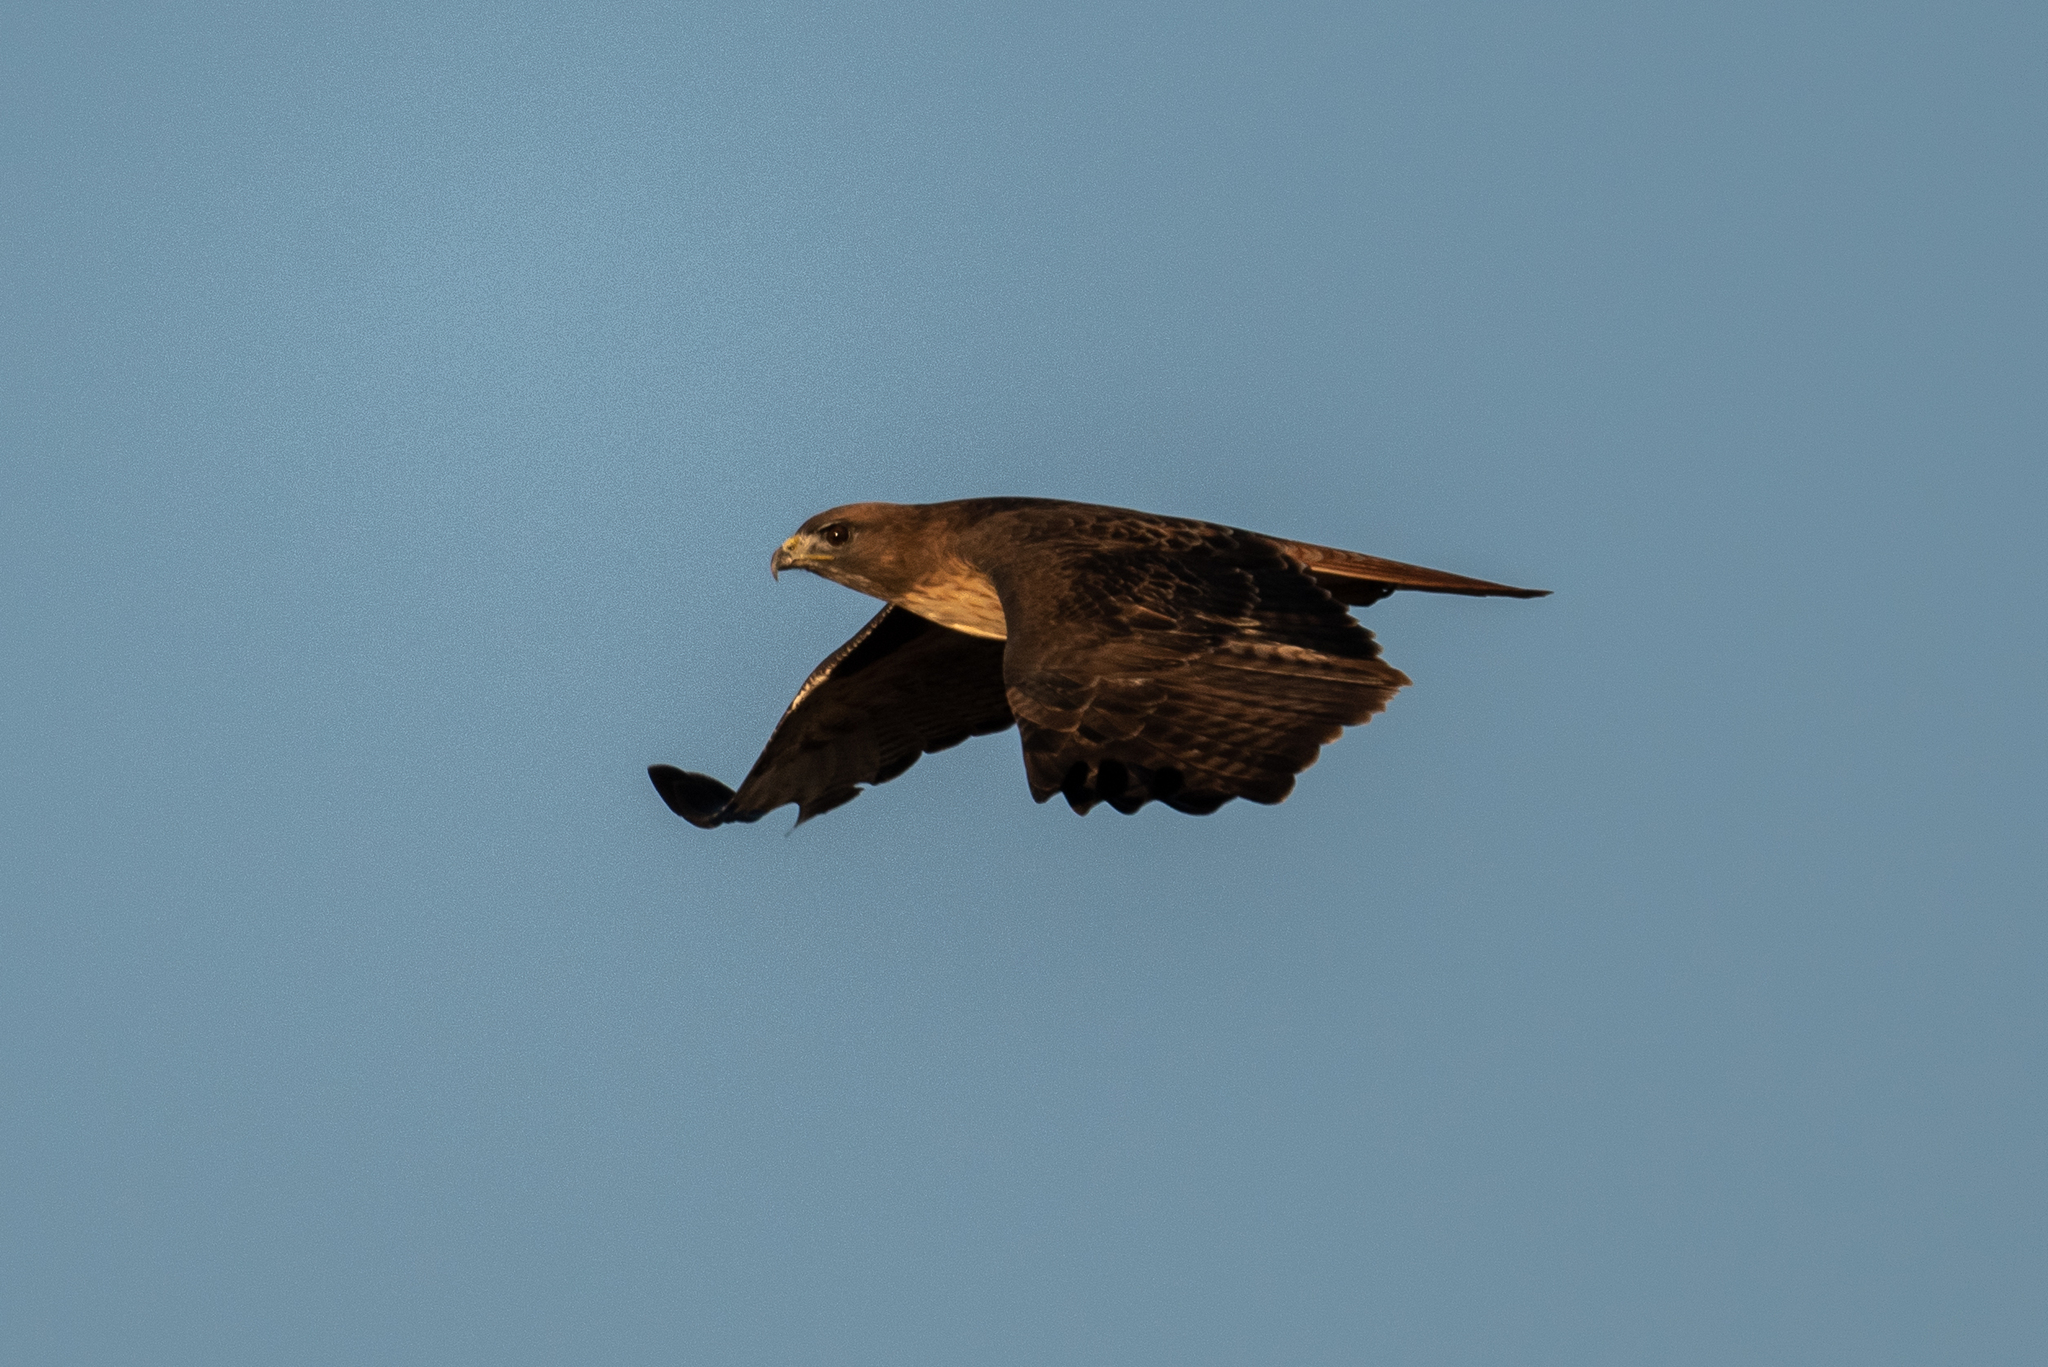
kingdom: Animalia
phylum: Chordata
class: Aves
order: Accipitriformes
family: Accipitridae
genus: Buteo
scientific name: Buteo jamaicensis
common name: Red-tailed hawk
